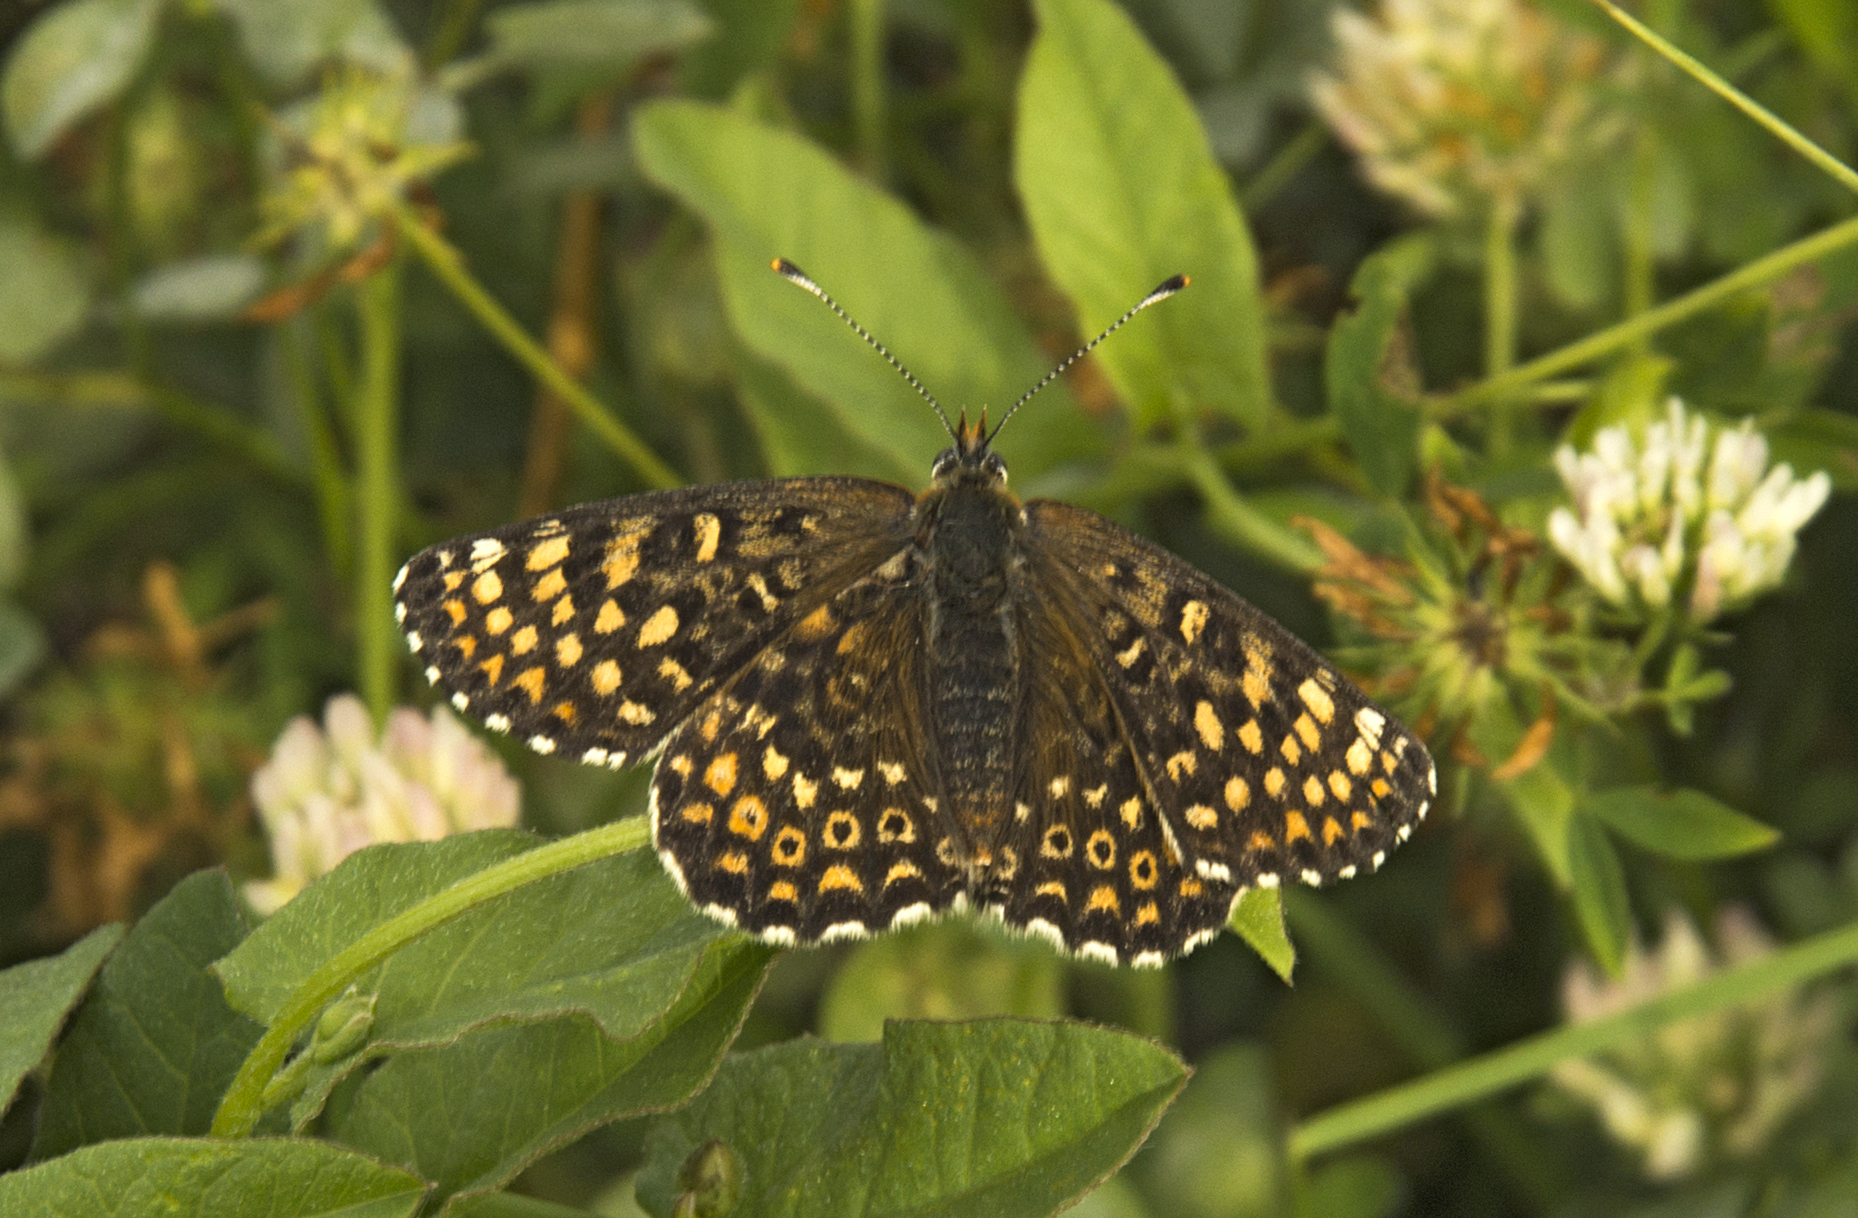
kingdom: Animalia
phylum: Arthropoda
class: Insecta
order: Lepidoptera
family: Nymphalidae
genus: Melitaea
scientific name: Melitaea cinxia
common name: Glanville fritillary
